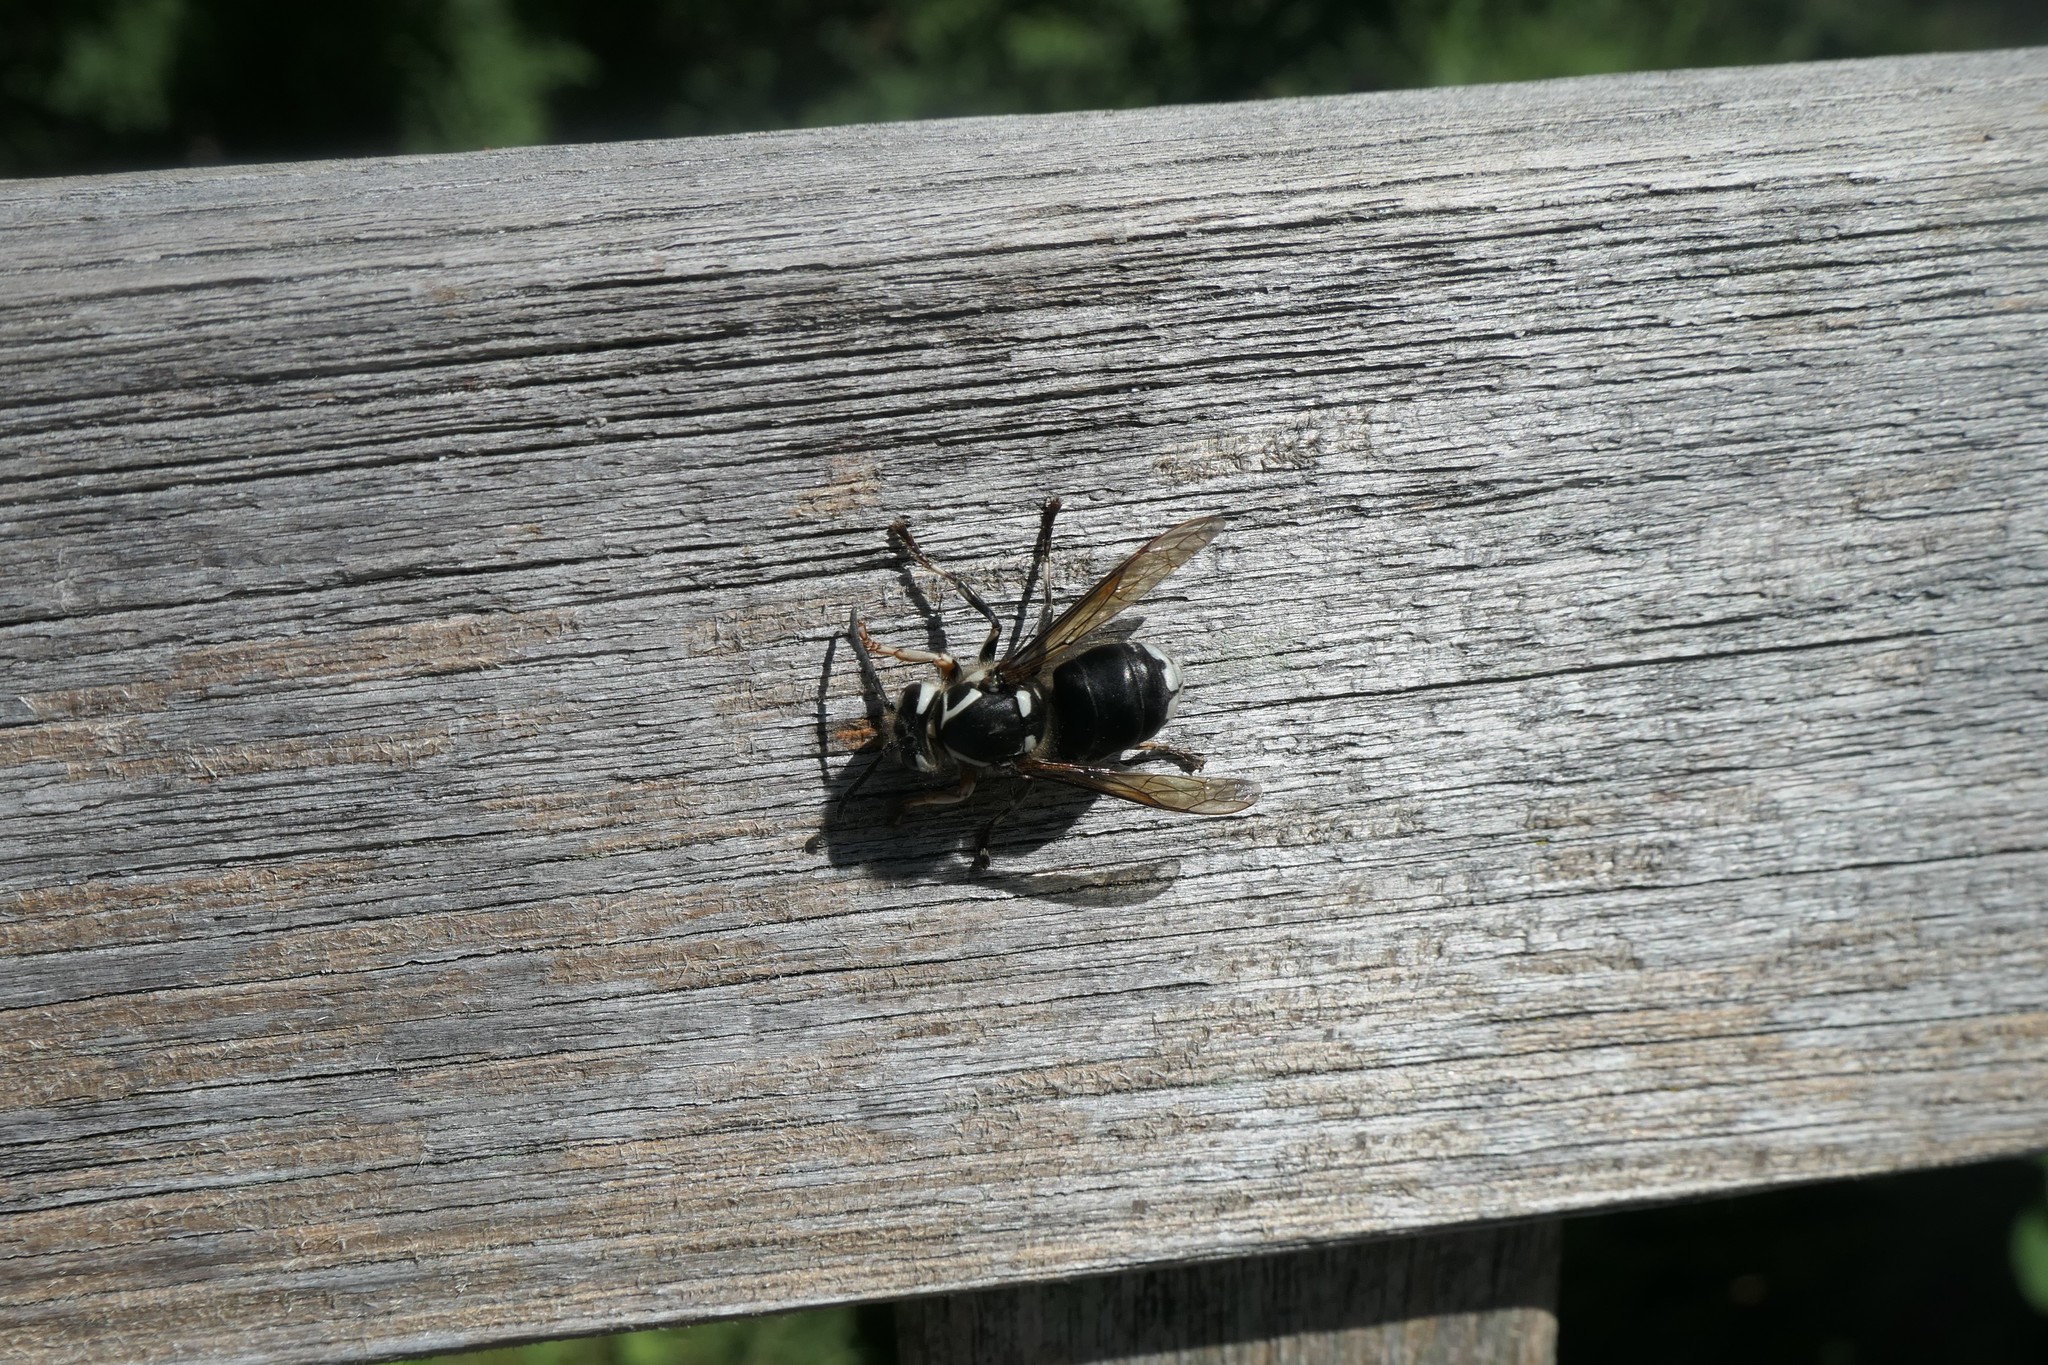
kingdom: Animalia
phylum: Arthropoda
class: Insecta
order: Hymenoptera
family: Vespidae
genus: Dolichovespula
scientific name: Dolichovespula maculata
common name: Bald-faced hornet
